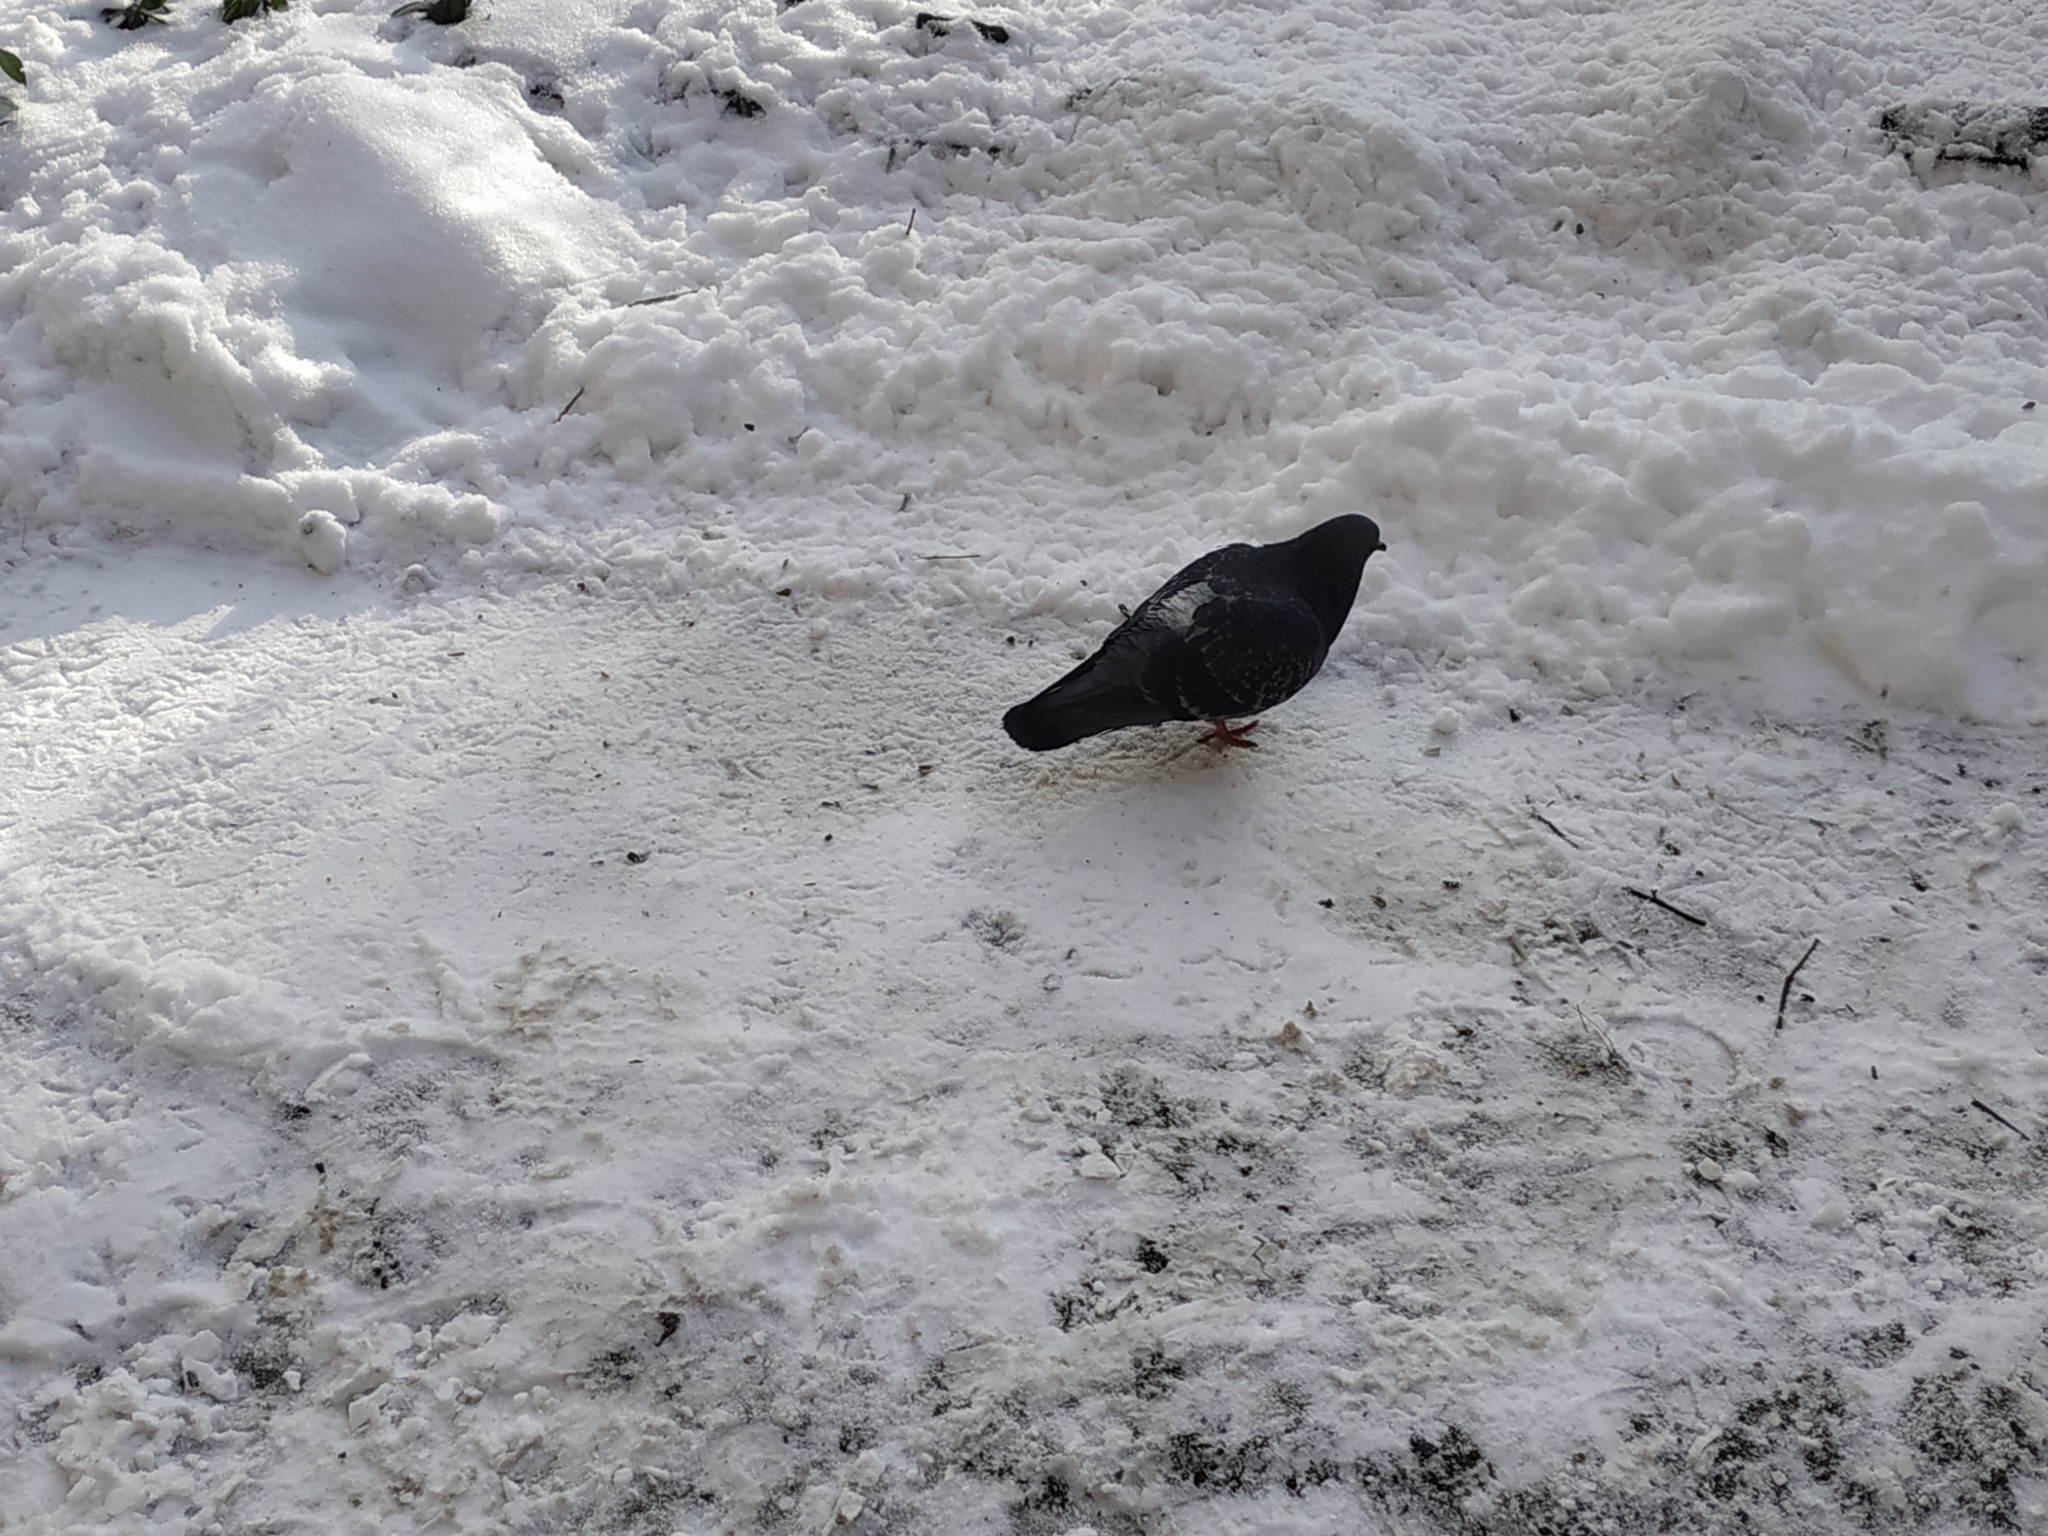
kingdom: Animalia
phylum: Chordata
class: Aves
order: Columbiformes
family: Columbidae
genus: Columba
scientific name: Columba livia
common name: Rock pigeon
